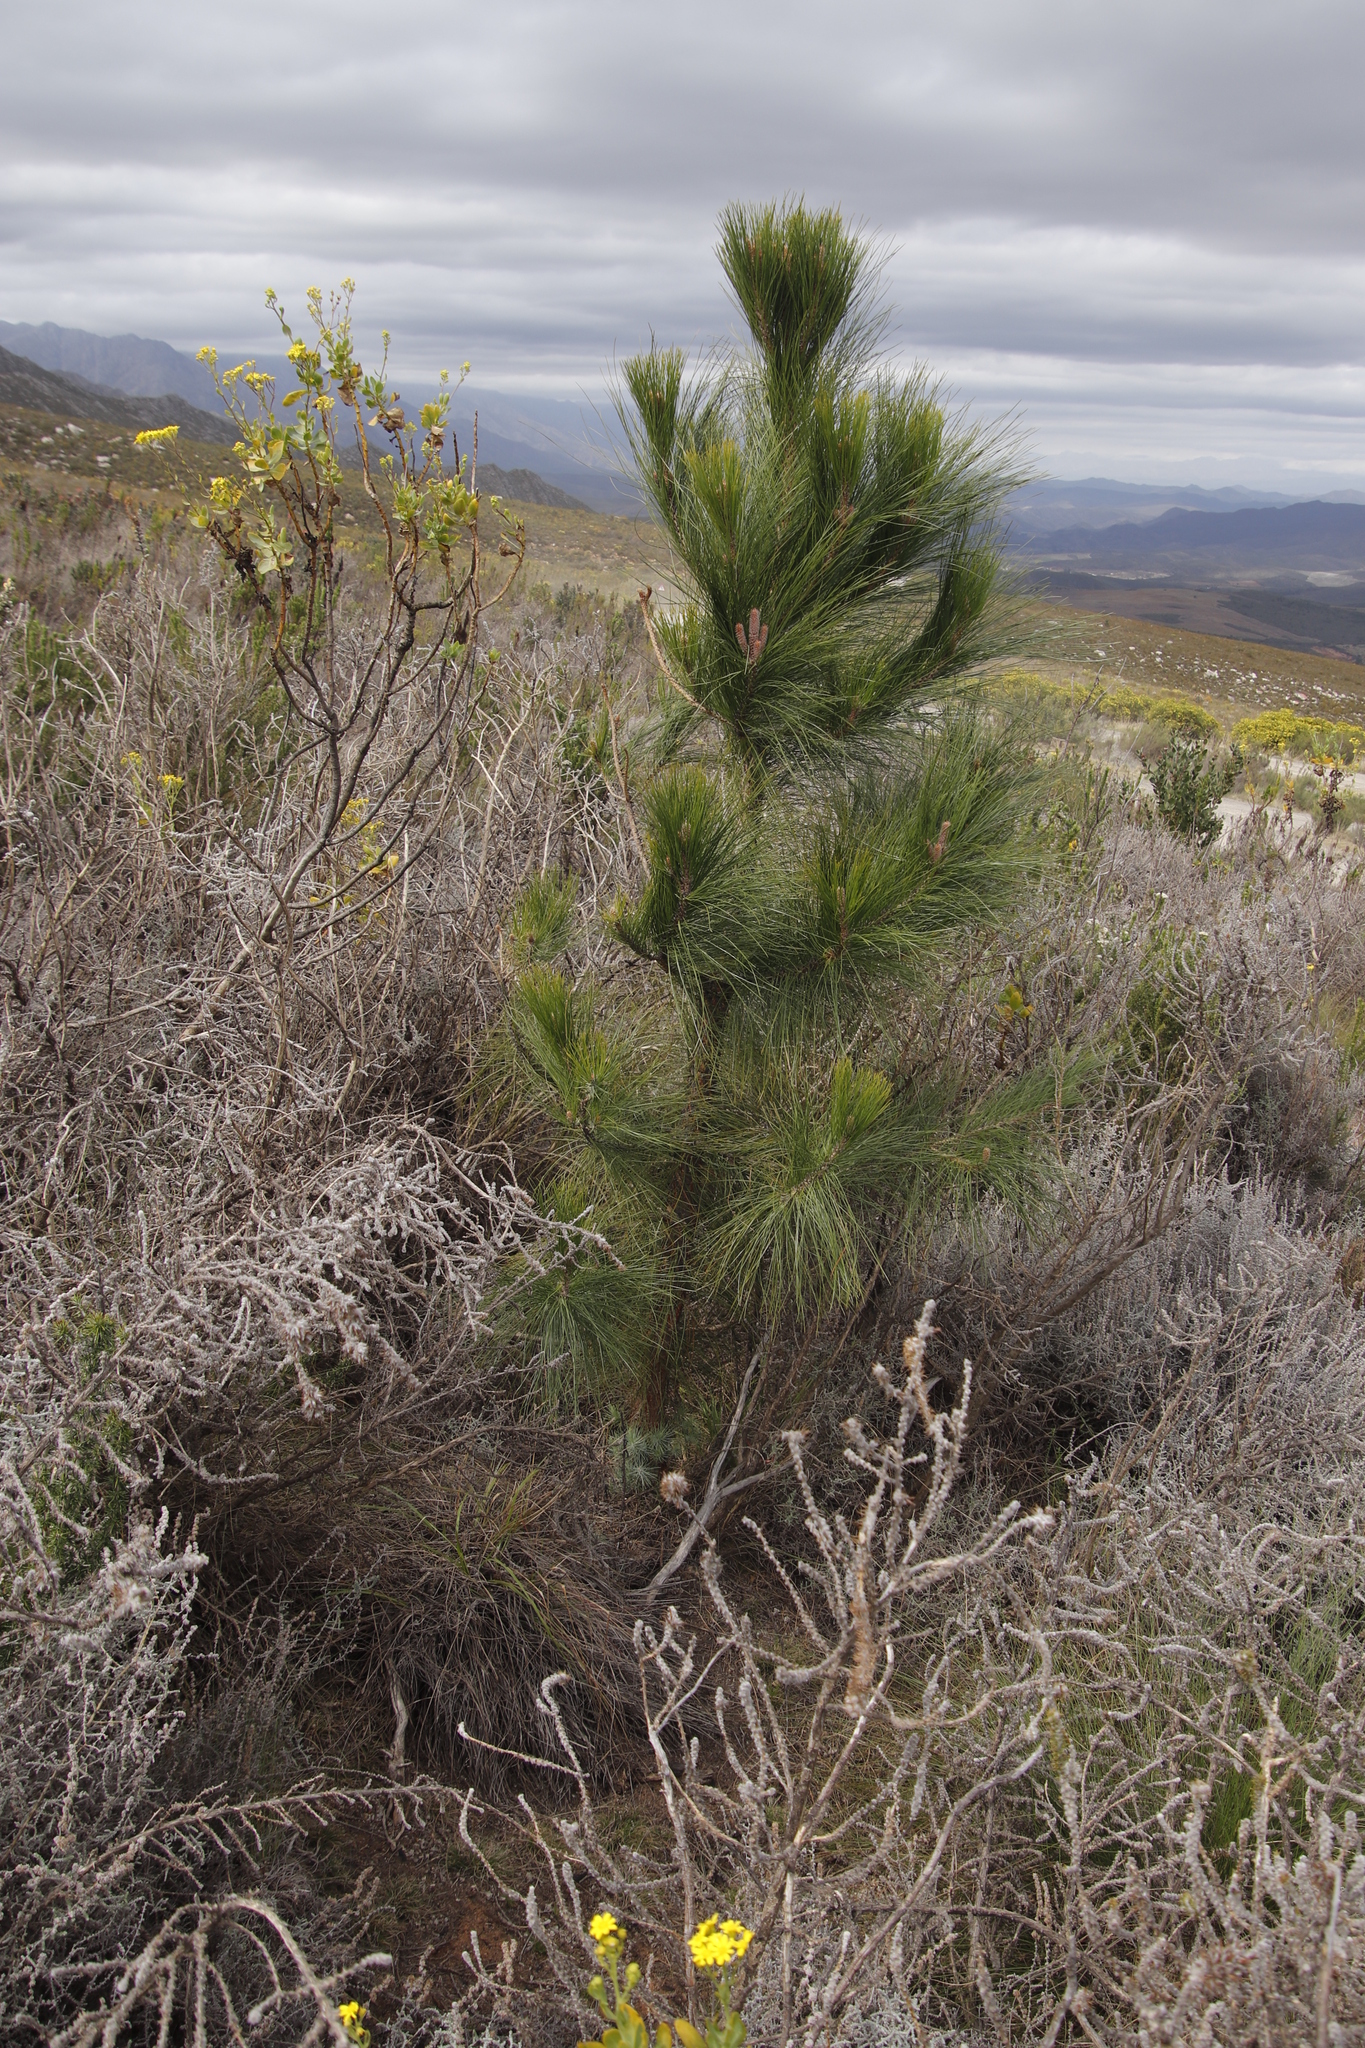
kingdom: Plantae
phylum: Tracheophyta
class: Pinopsida
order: Pinales
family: Pinaceae
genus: Pinus
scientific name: Pinus coulteri
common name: Coulter pine
